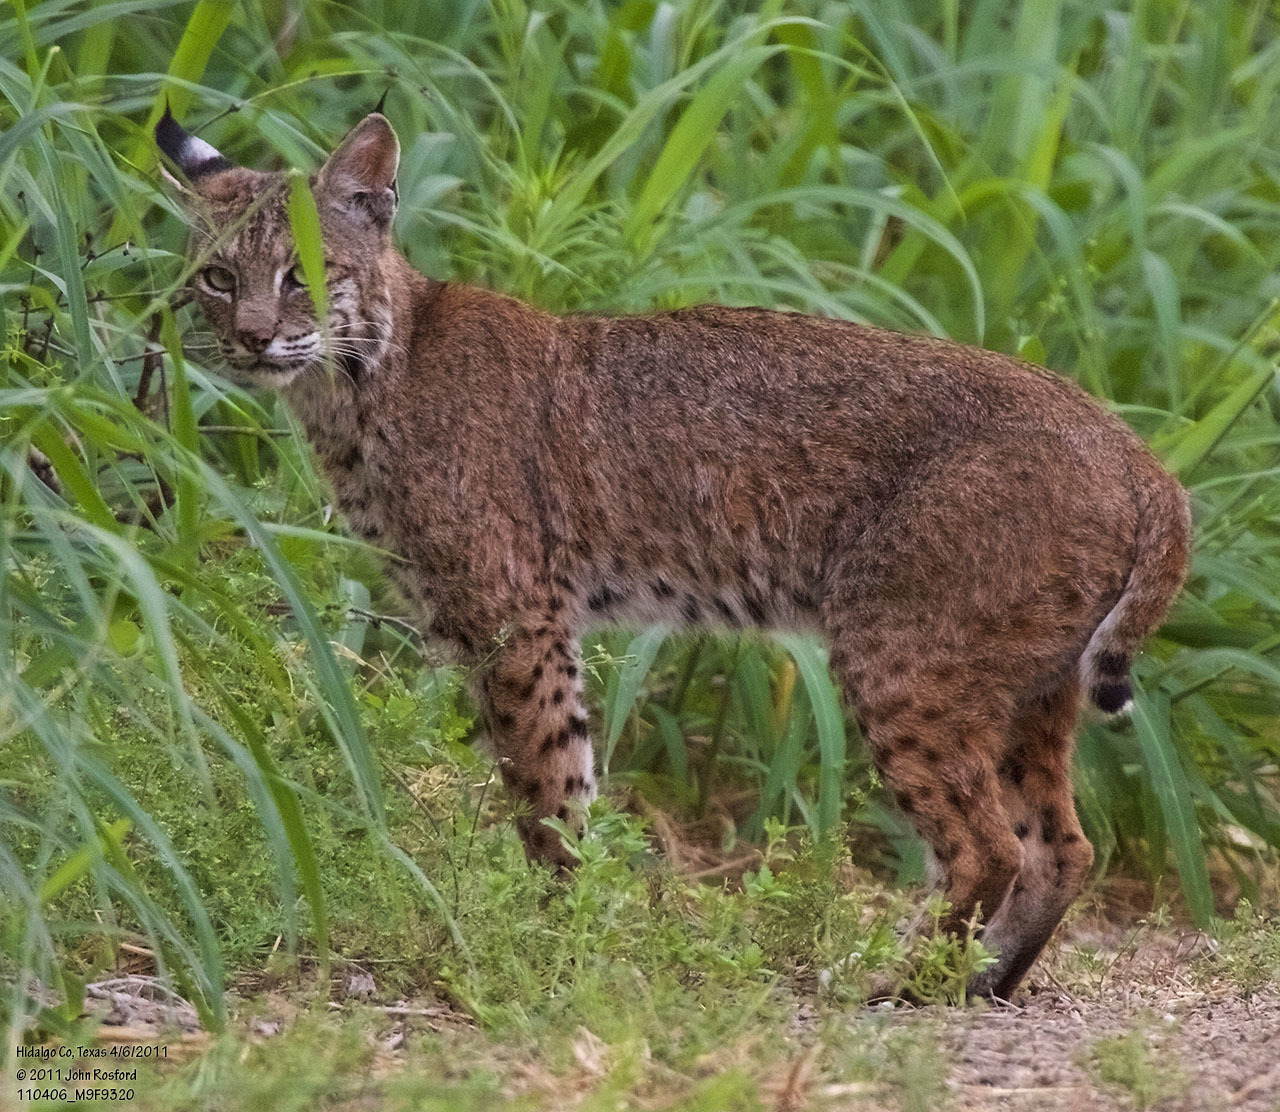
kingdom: Animalia
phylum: Chordata
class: Mammalia
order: Carnivora
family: Felidae
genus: Lynx
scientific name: Lynx rufus
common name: Bobcat
